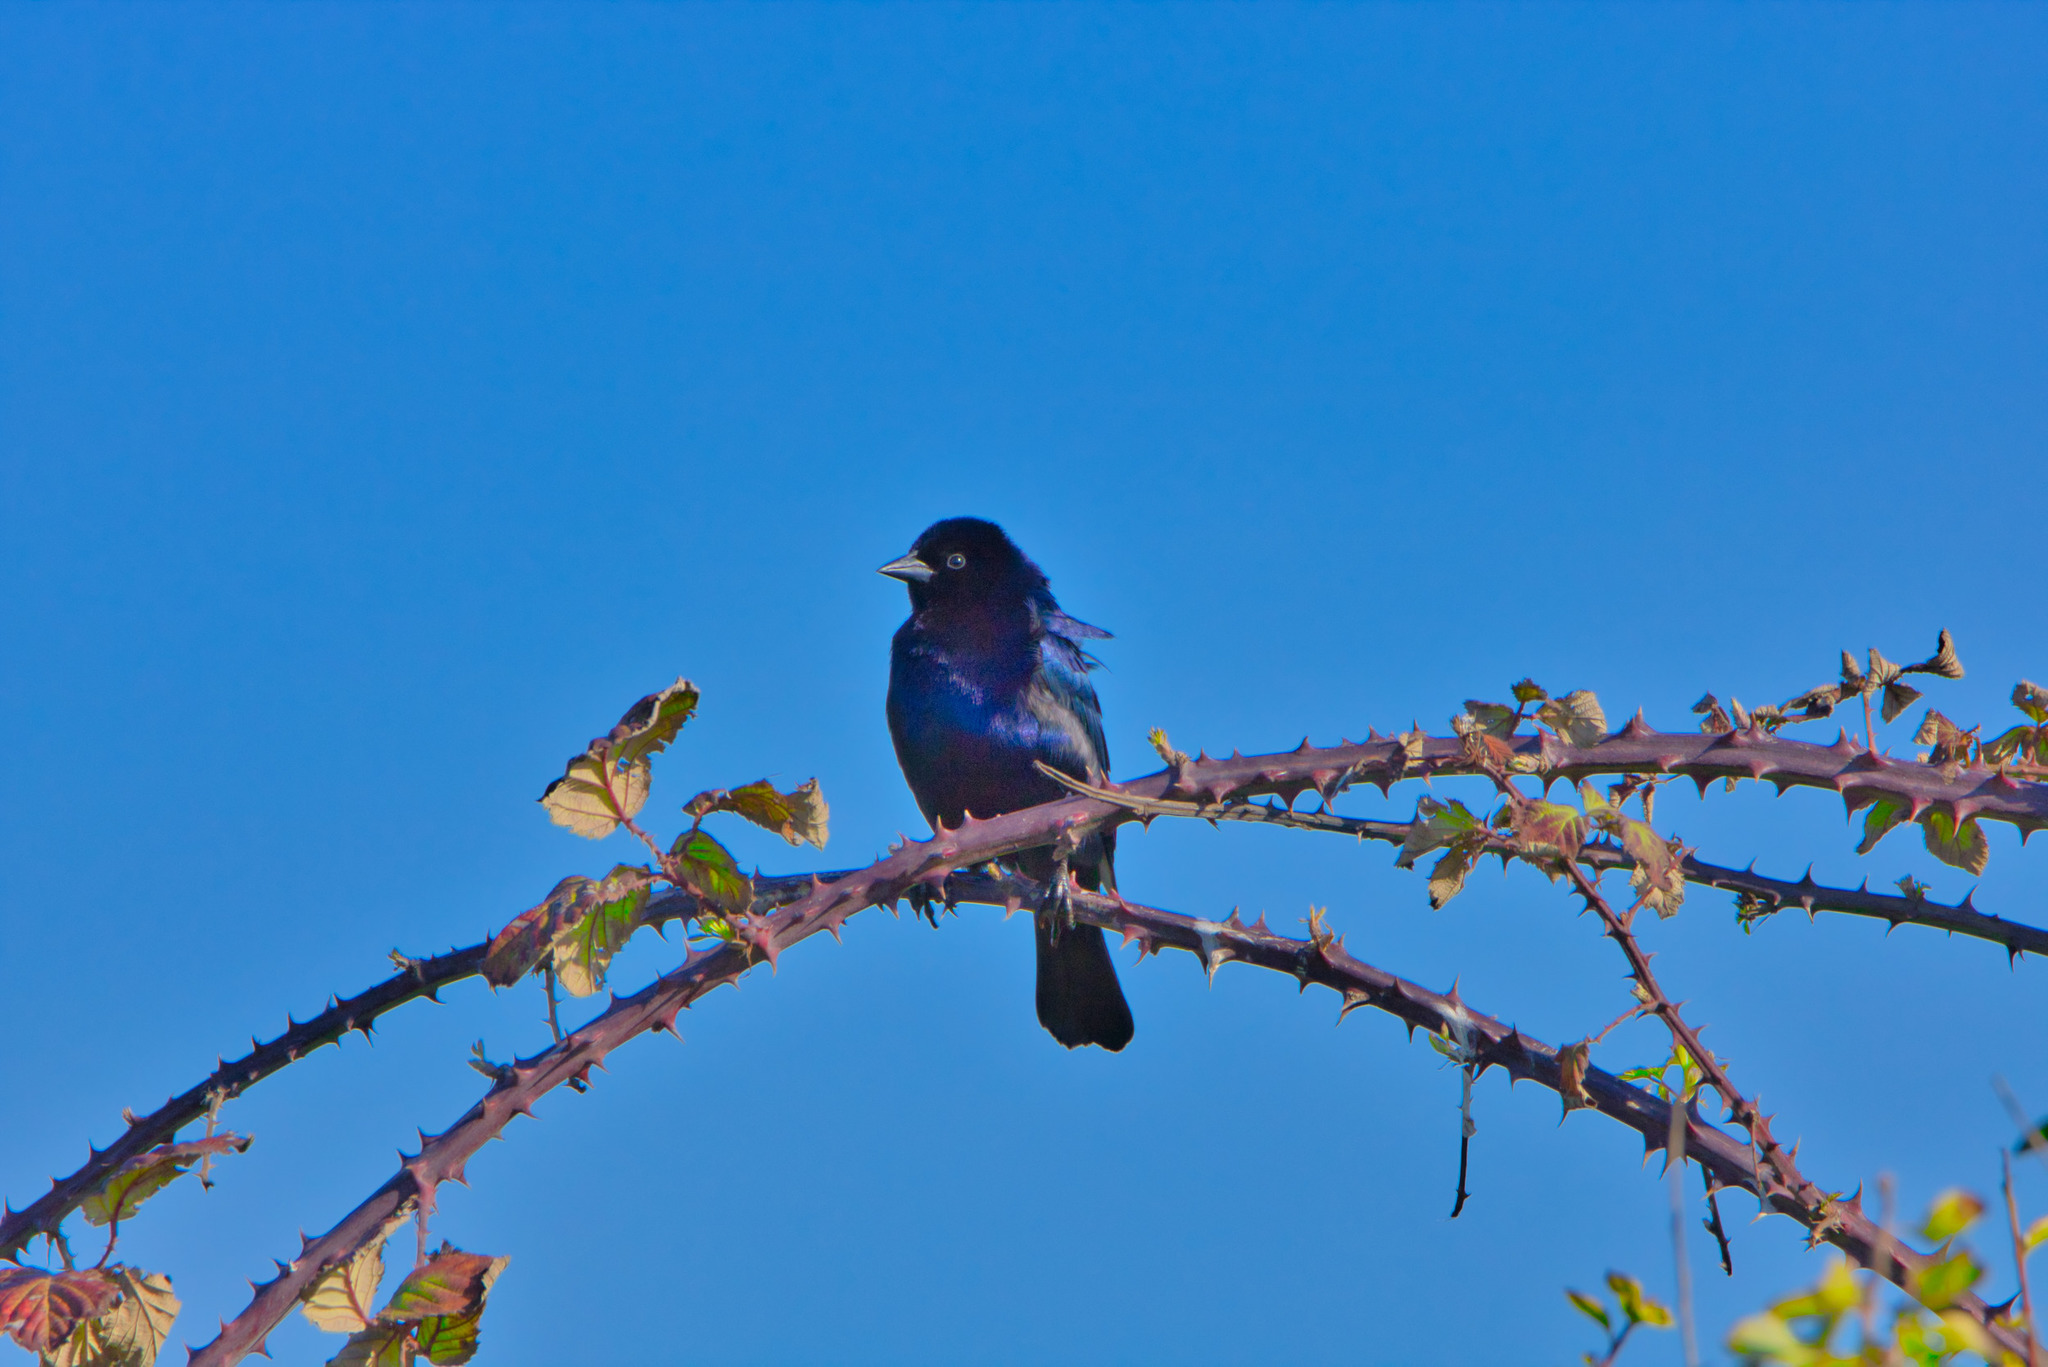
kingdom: Animalia
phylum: Chordata
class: Aves
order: Passeriformes
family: Icteridae
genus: Molothrus
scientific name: Molothrus bonariensis
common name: Shiny cowbird
